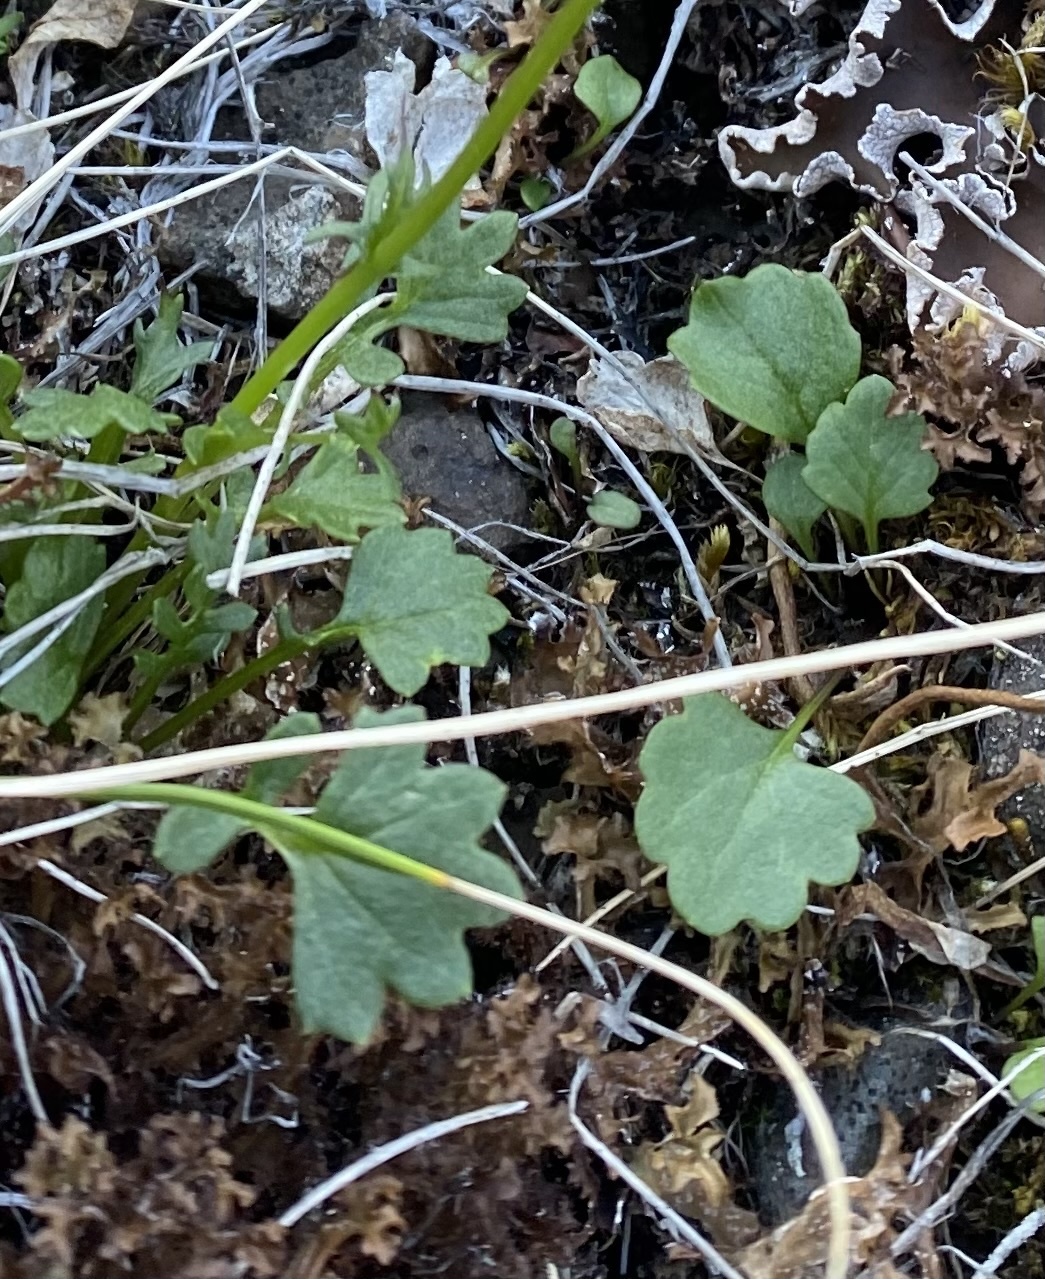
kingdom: Plantae
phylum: Tracheophyta
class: Magnoliopsida
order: Asterales
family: Asteraceae
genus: Packera
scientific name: Packera heterophylla
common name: Arctic butterweed
